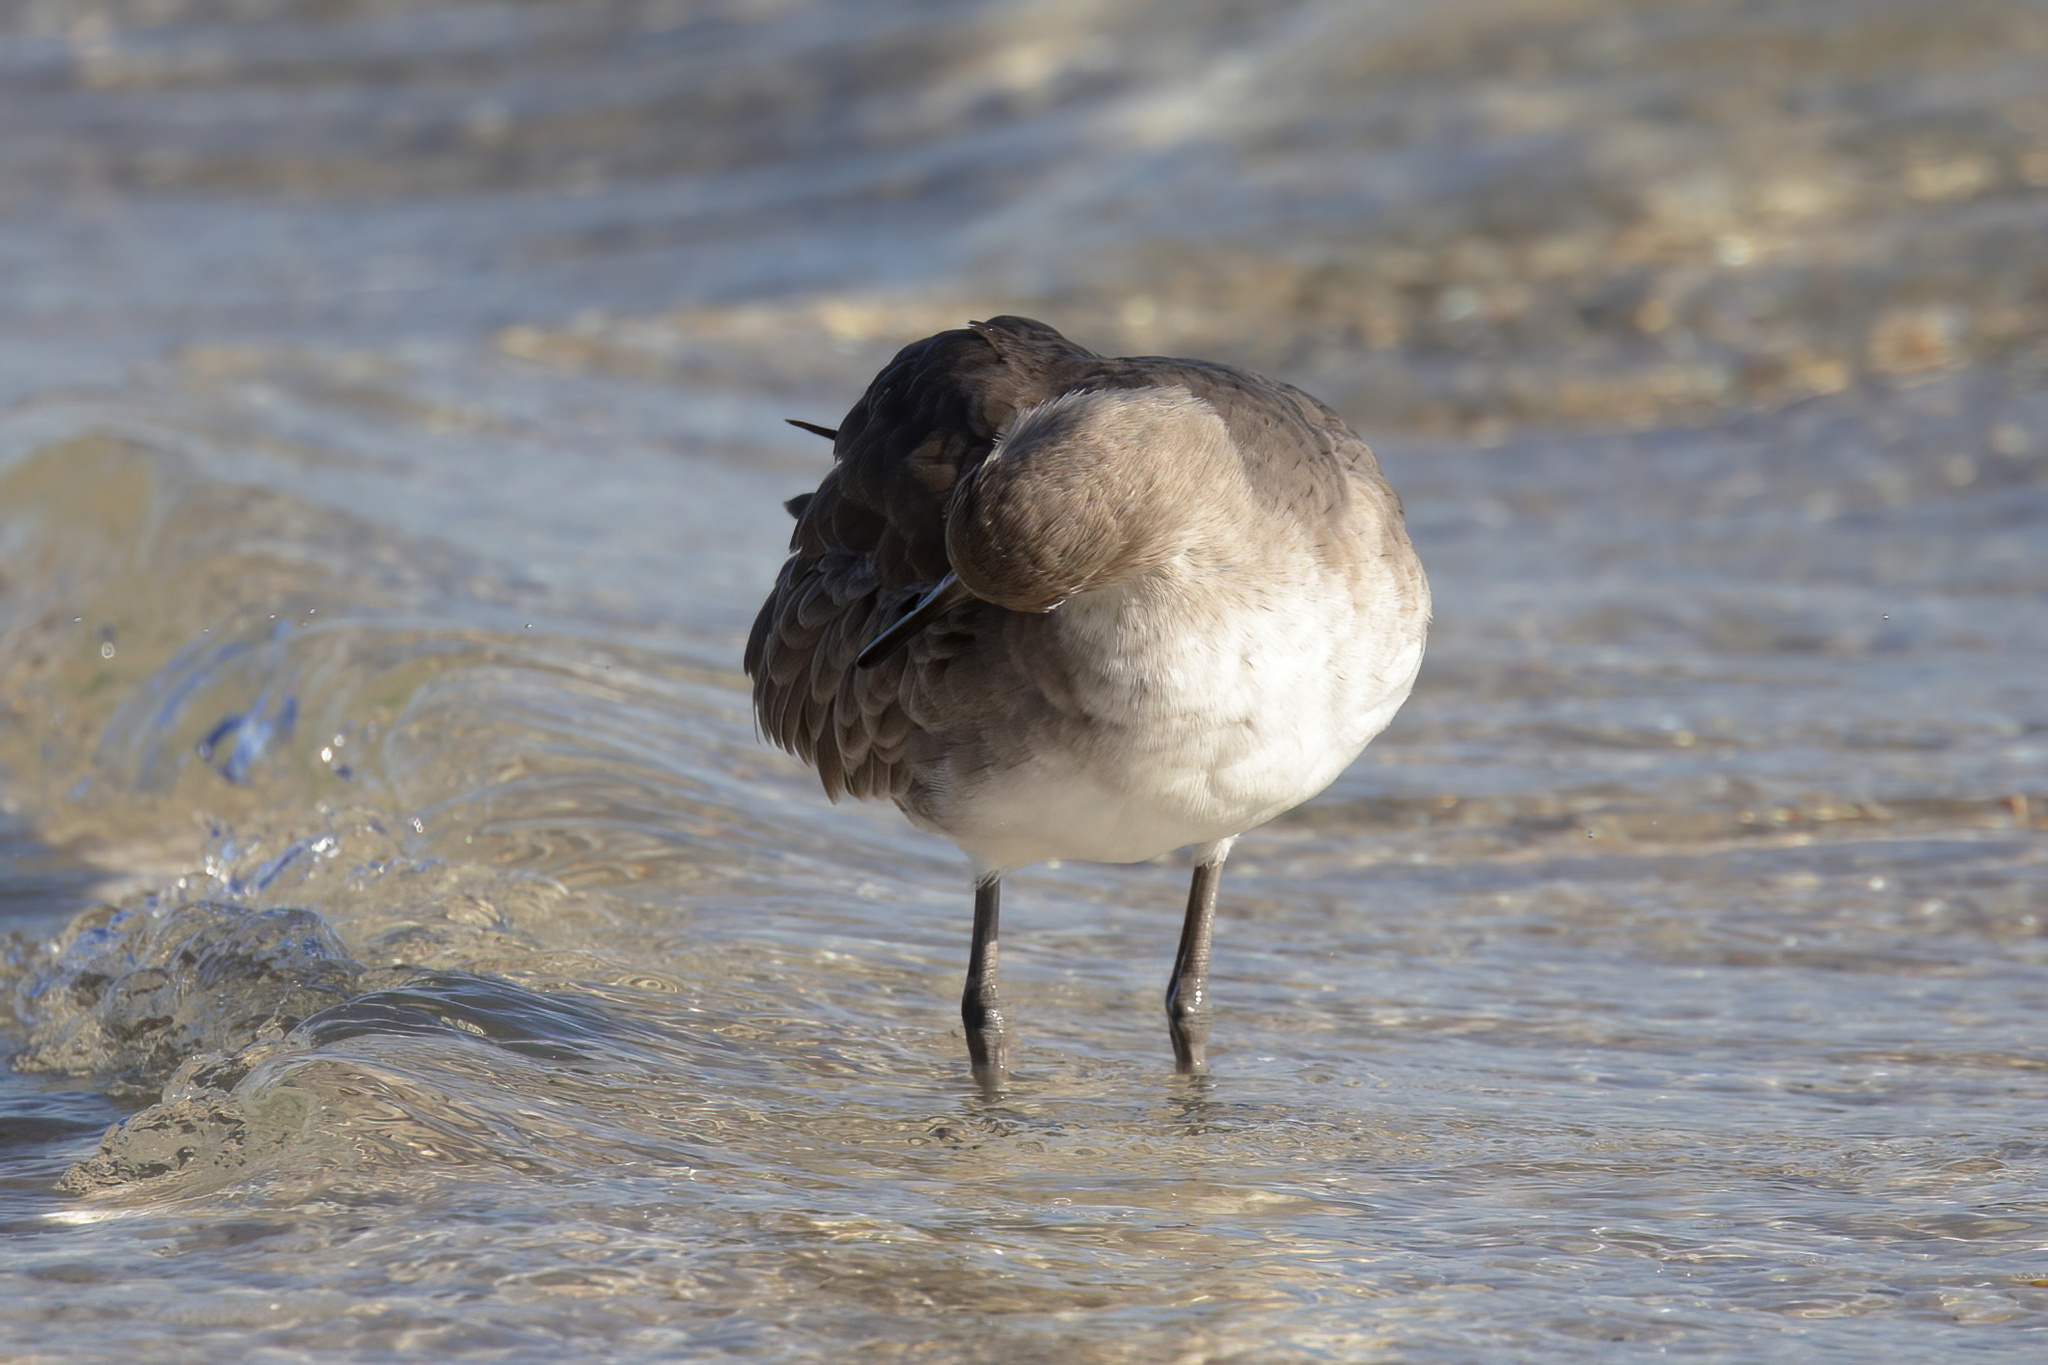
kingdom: Animalia
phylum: Chordata
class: Aves
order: Charadriiformes
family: Scolopacidae
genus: Tringa
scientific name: Tringa semipalmata
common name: Willet
